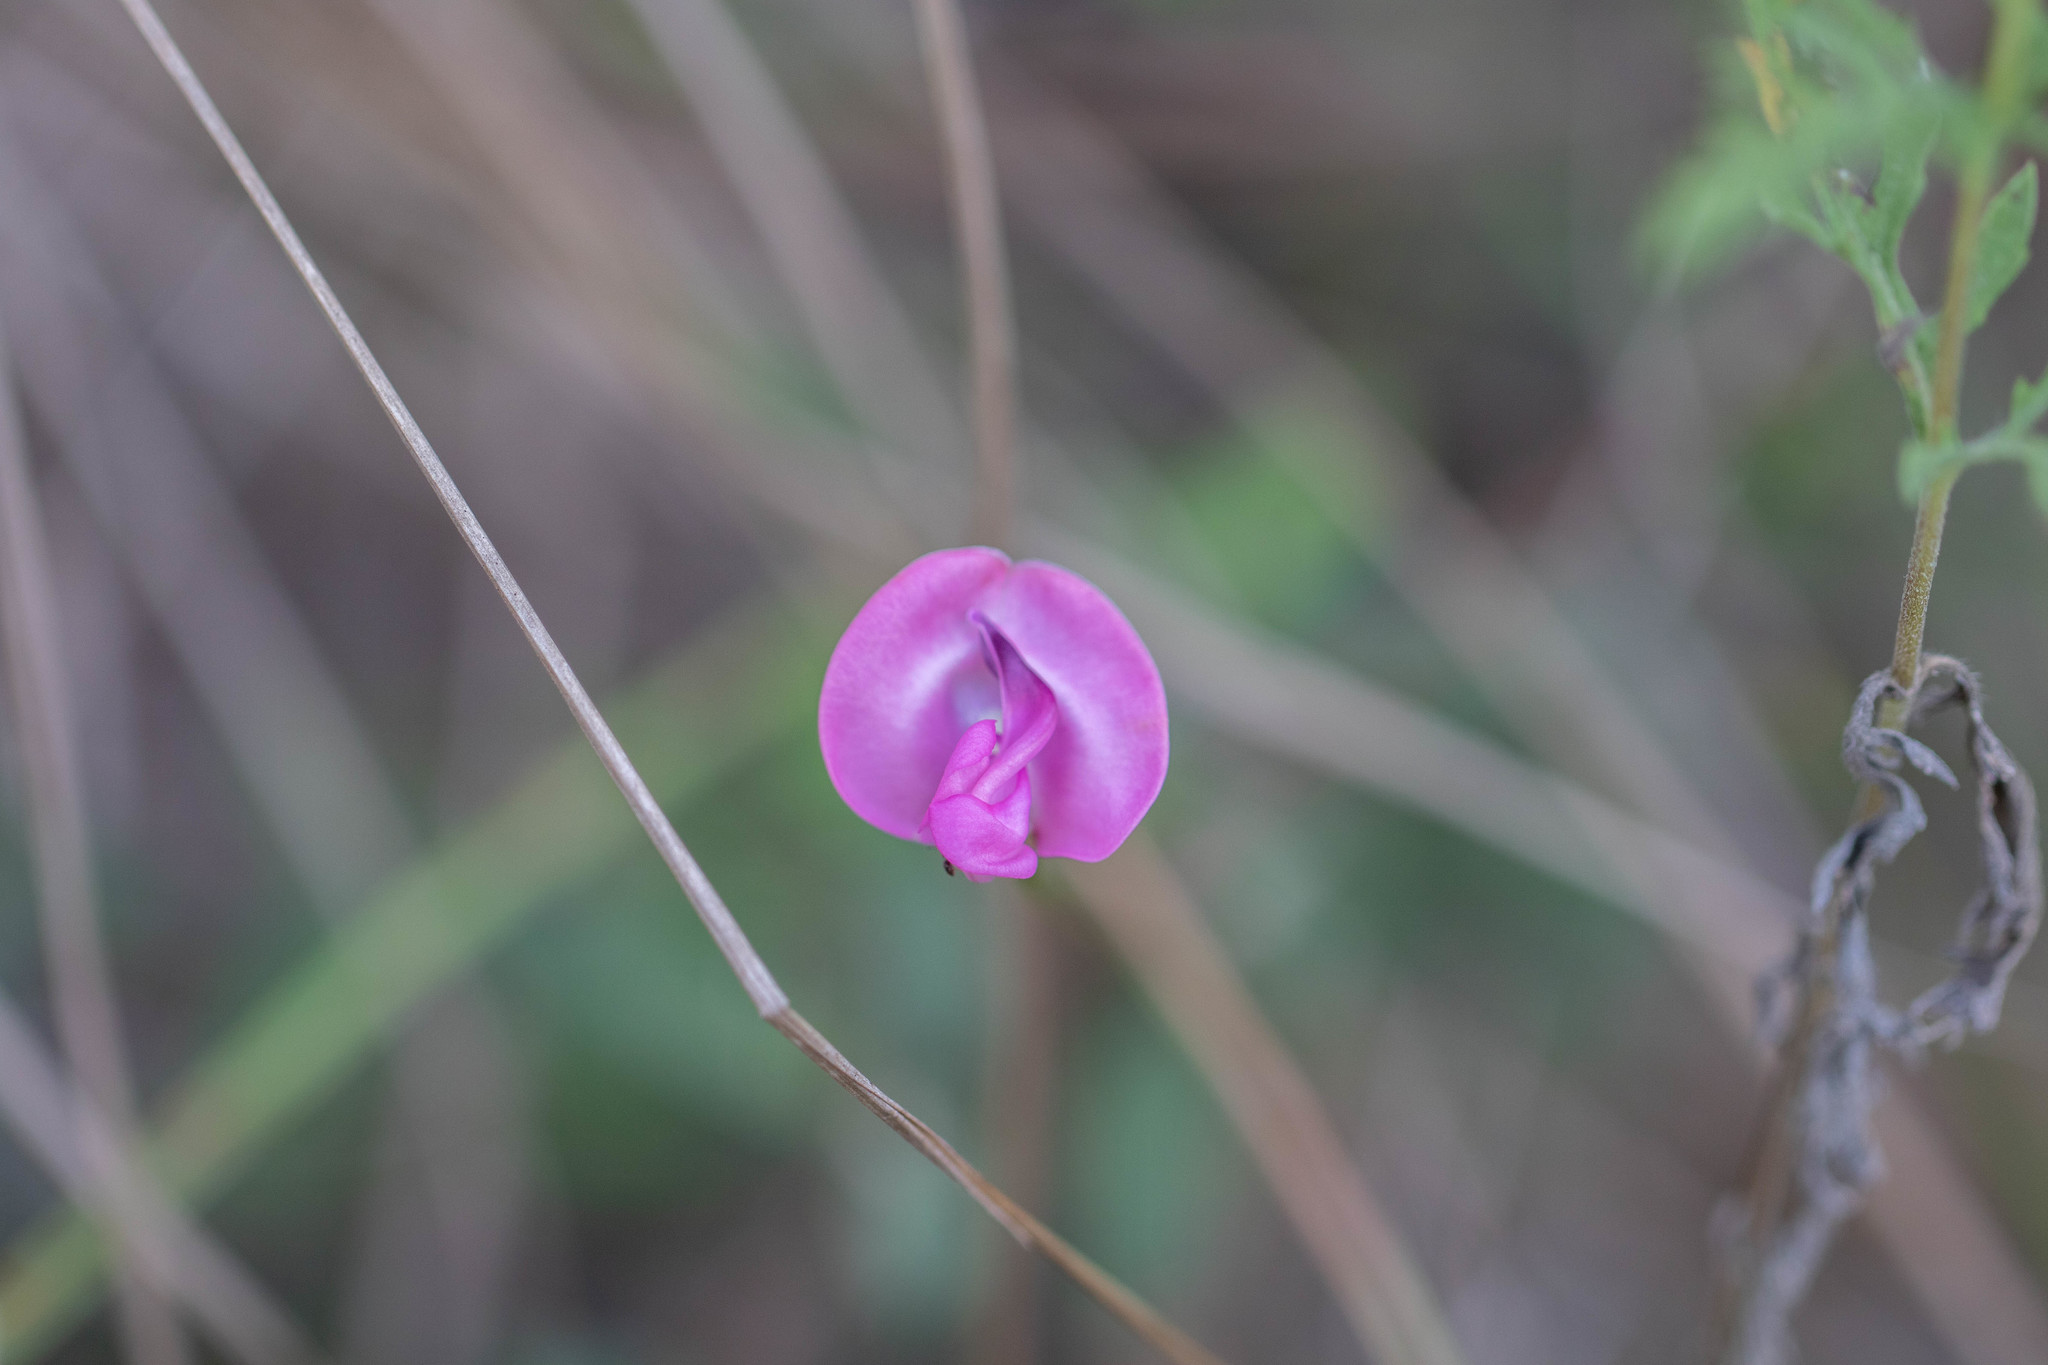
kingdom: Plantae
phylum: Tracheophyta
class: Magnoliopsida
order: Fabales
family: Fabaceae
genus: Strophostyles
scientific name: Strophostyles umbellata
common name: Perennial wild bean
